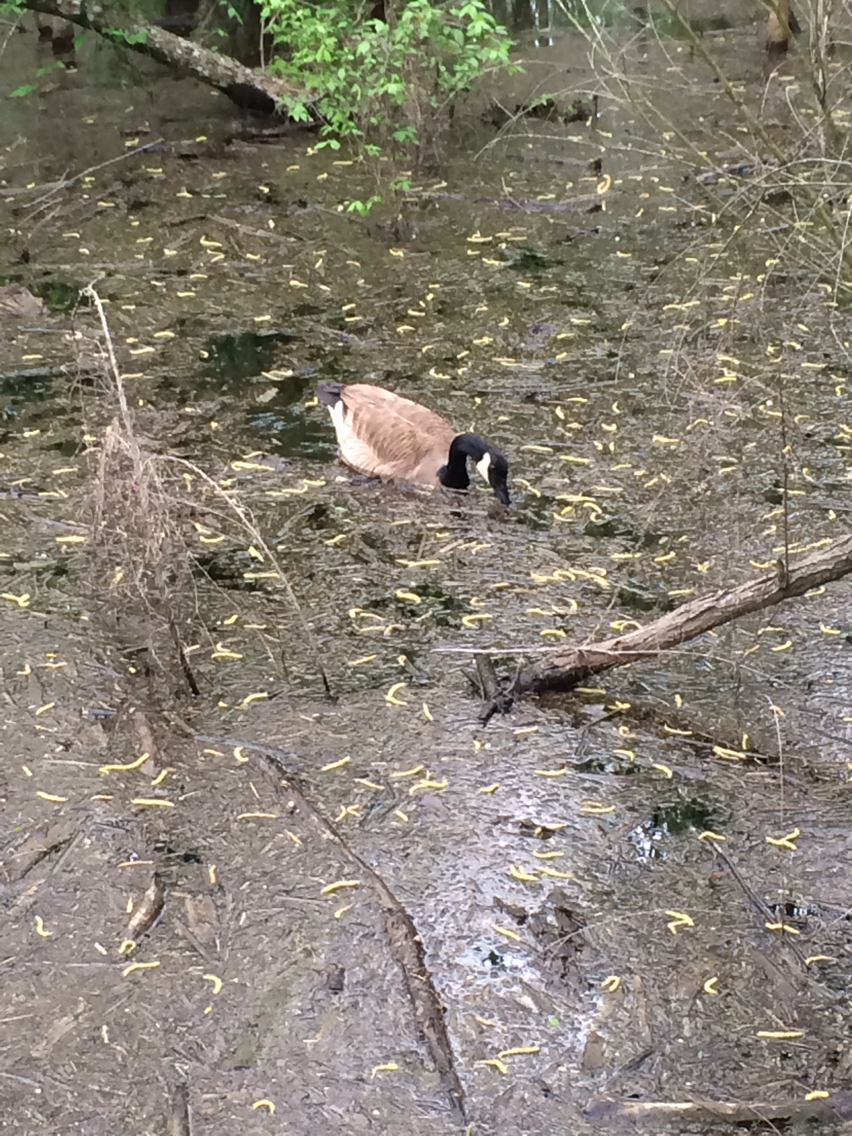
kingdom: Animalia
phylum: Chordata
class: Aves
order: Anseriformes
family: Anatidae
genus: Branta
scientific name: Branta canadensis
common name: Canada goose
